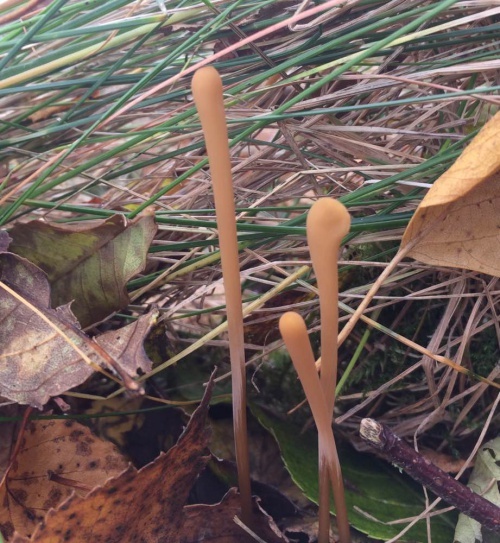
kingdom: Fungi
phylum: Basidiomycota
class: Agaricomycetes
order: Agaricales
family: Typhulaceae
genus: Typhula
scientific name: Typhula fistulosa
